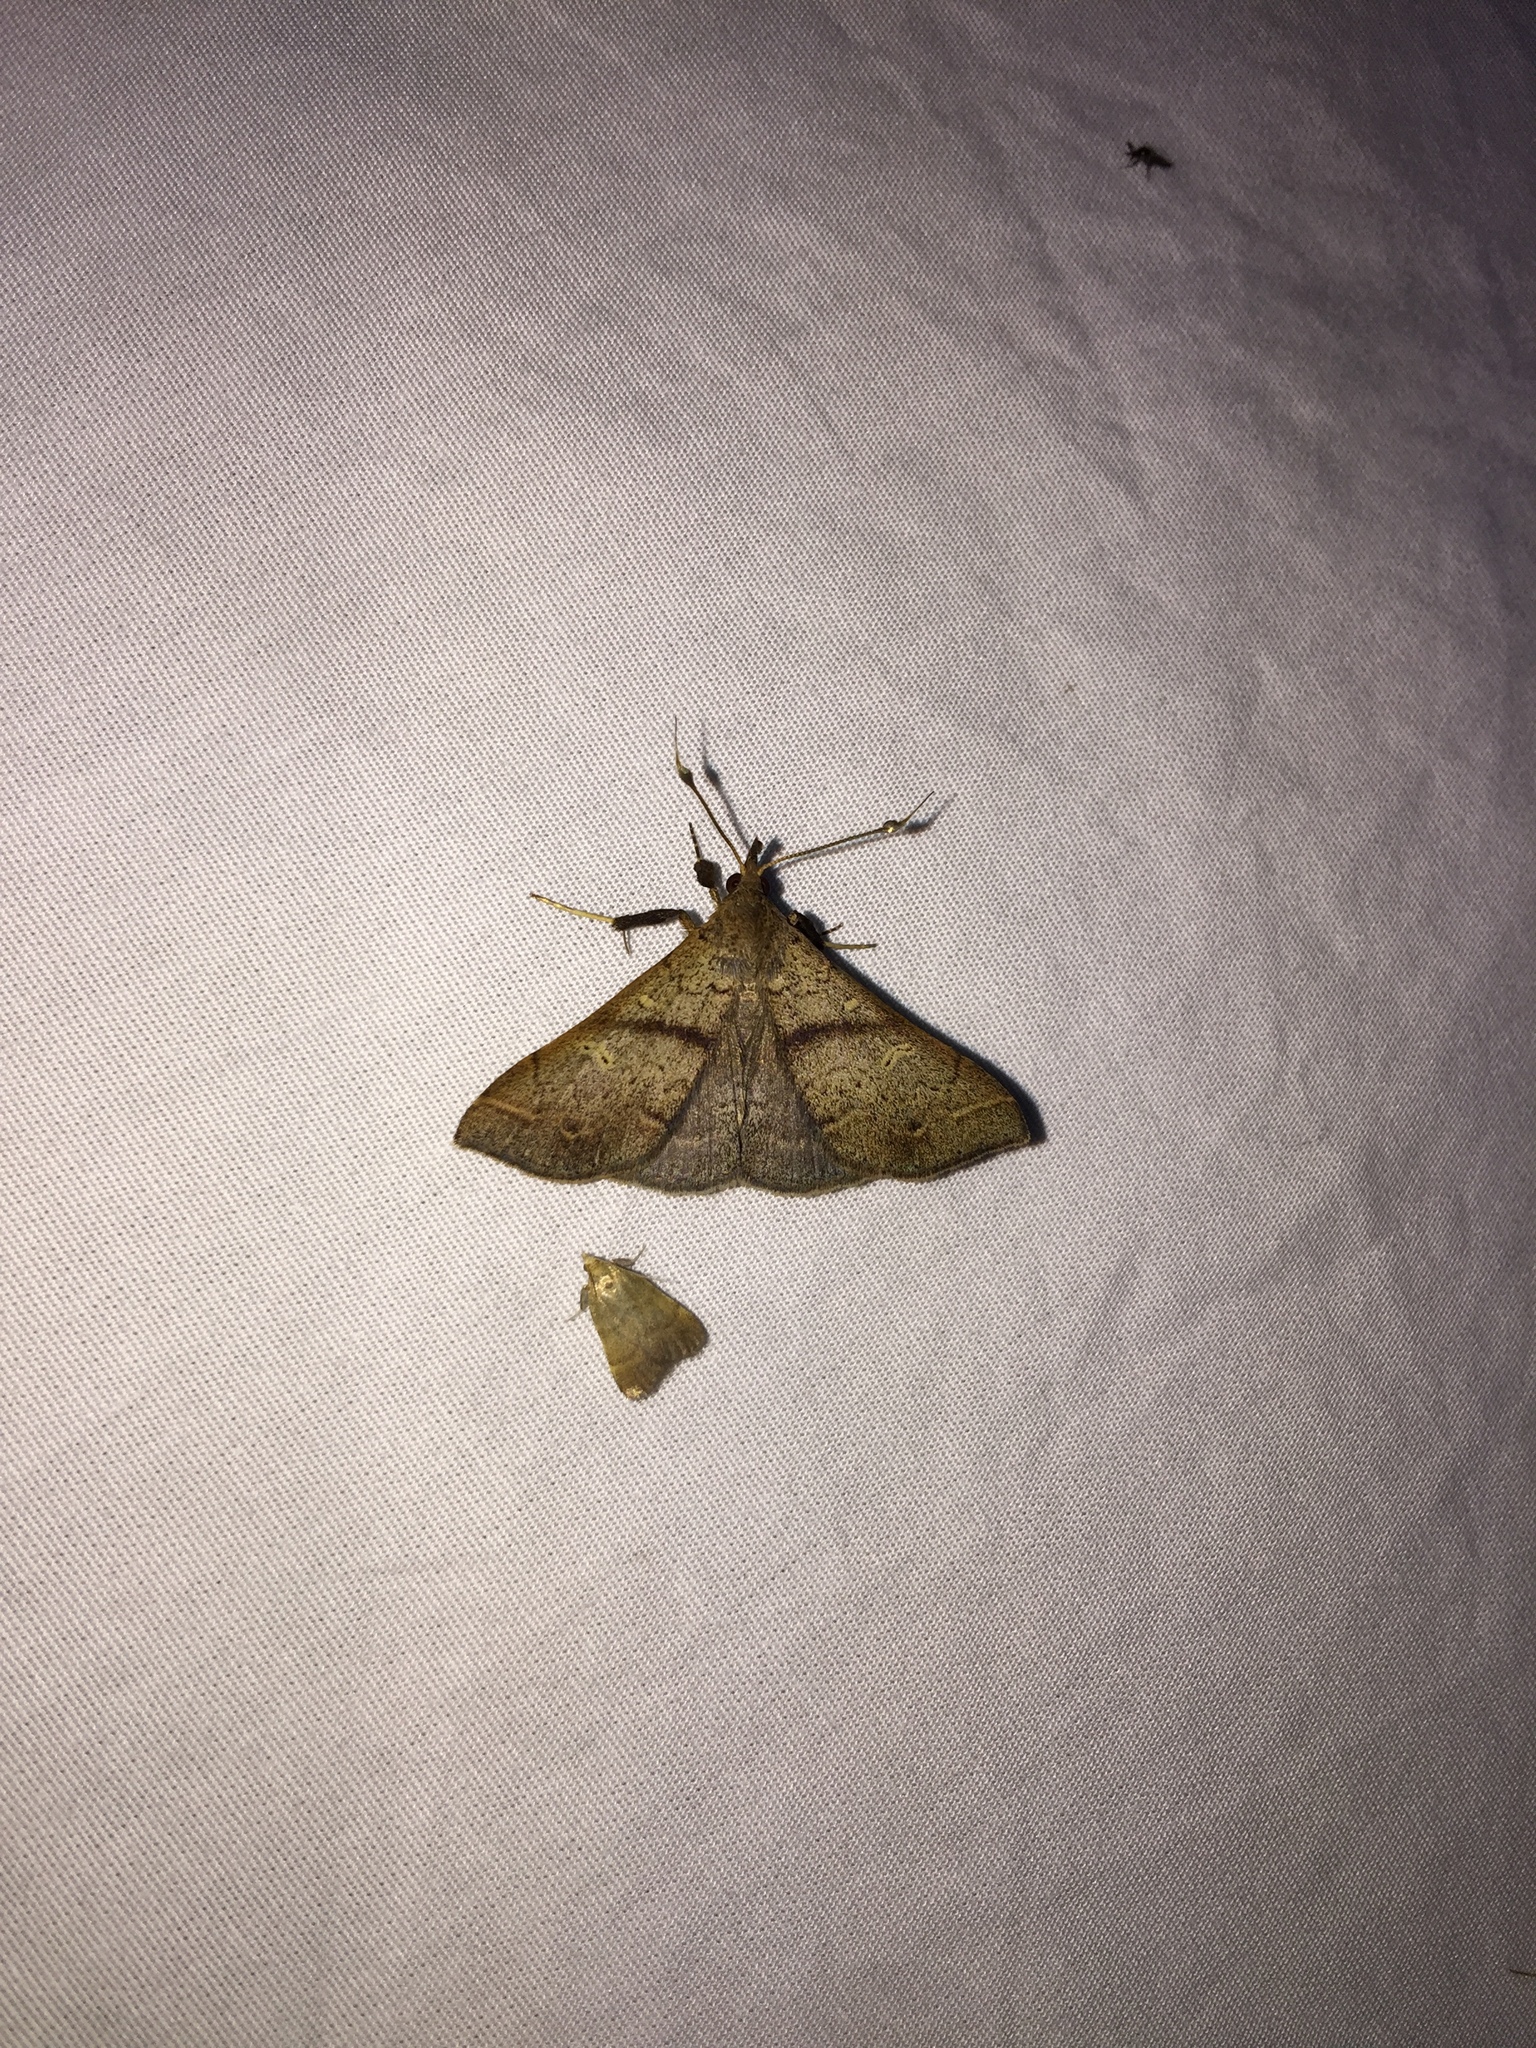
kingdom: Animalia
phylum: Arthropoda
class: Insecta
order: Lepidoptera
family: Erebidae
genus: Renia
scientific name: Renia discoloralis
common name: Discolored renia moth
